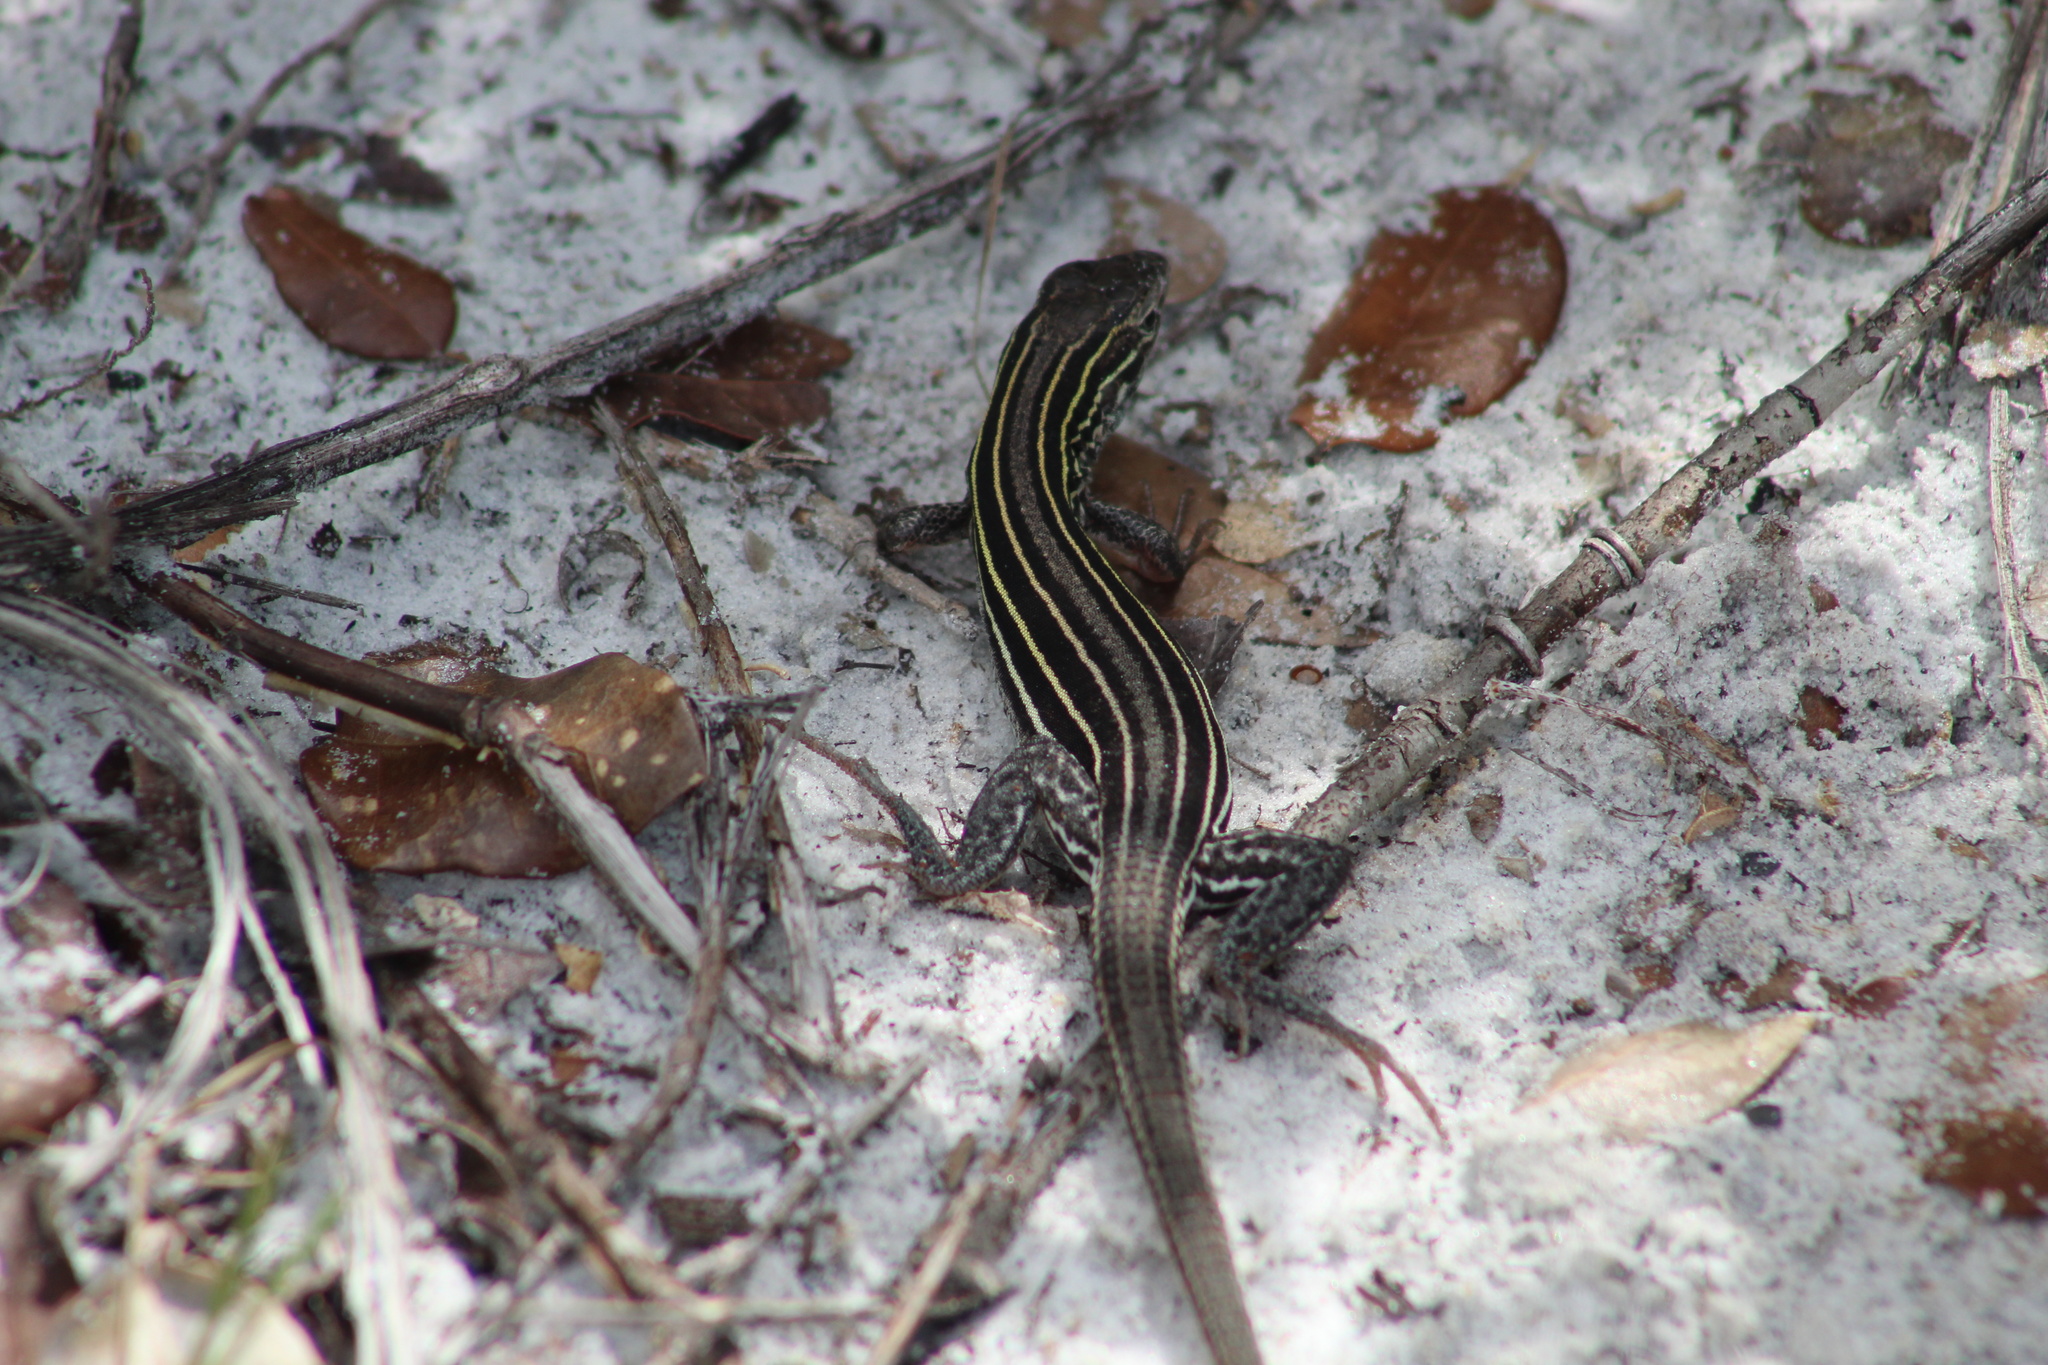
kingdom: Animalia
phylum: Chordata
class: Squamata
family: Teiidae
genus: Aspidoscelis
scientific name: Aspidoscelis sexlineatus
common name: Six-lined racerunner
